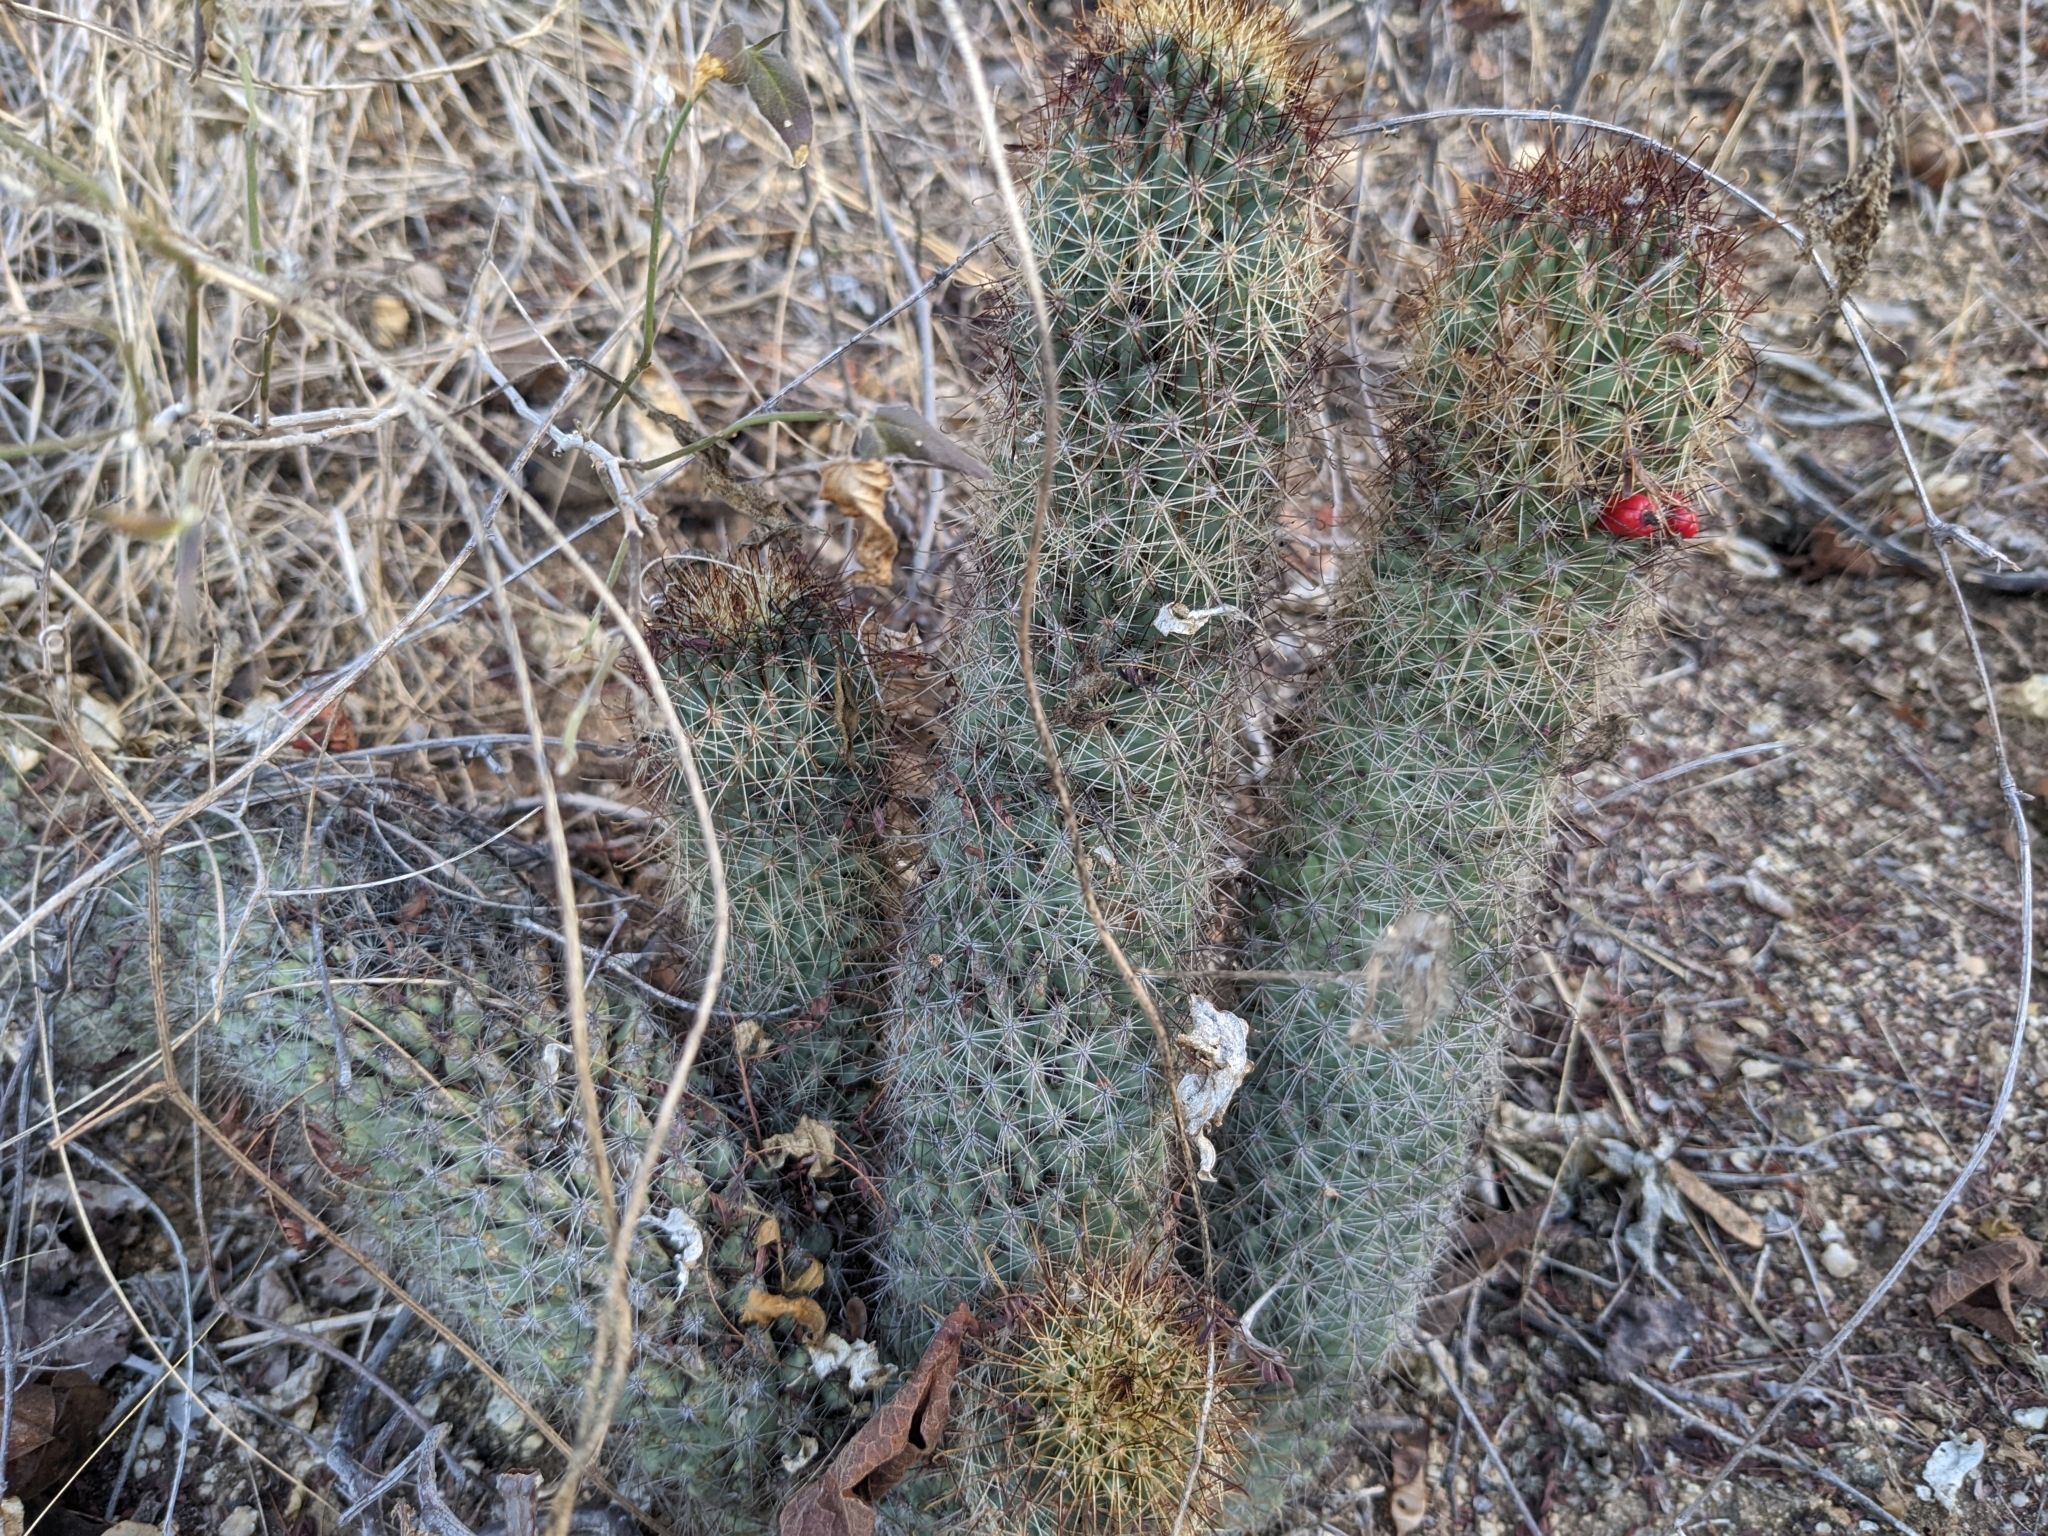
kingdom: Plantae
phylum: Tracheophyta
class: Magnoliopsida
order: Caryophyllales
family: Cactaceae
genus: Cochemiea
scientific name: Cochemiea armillata
